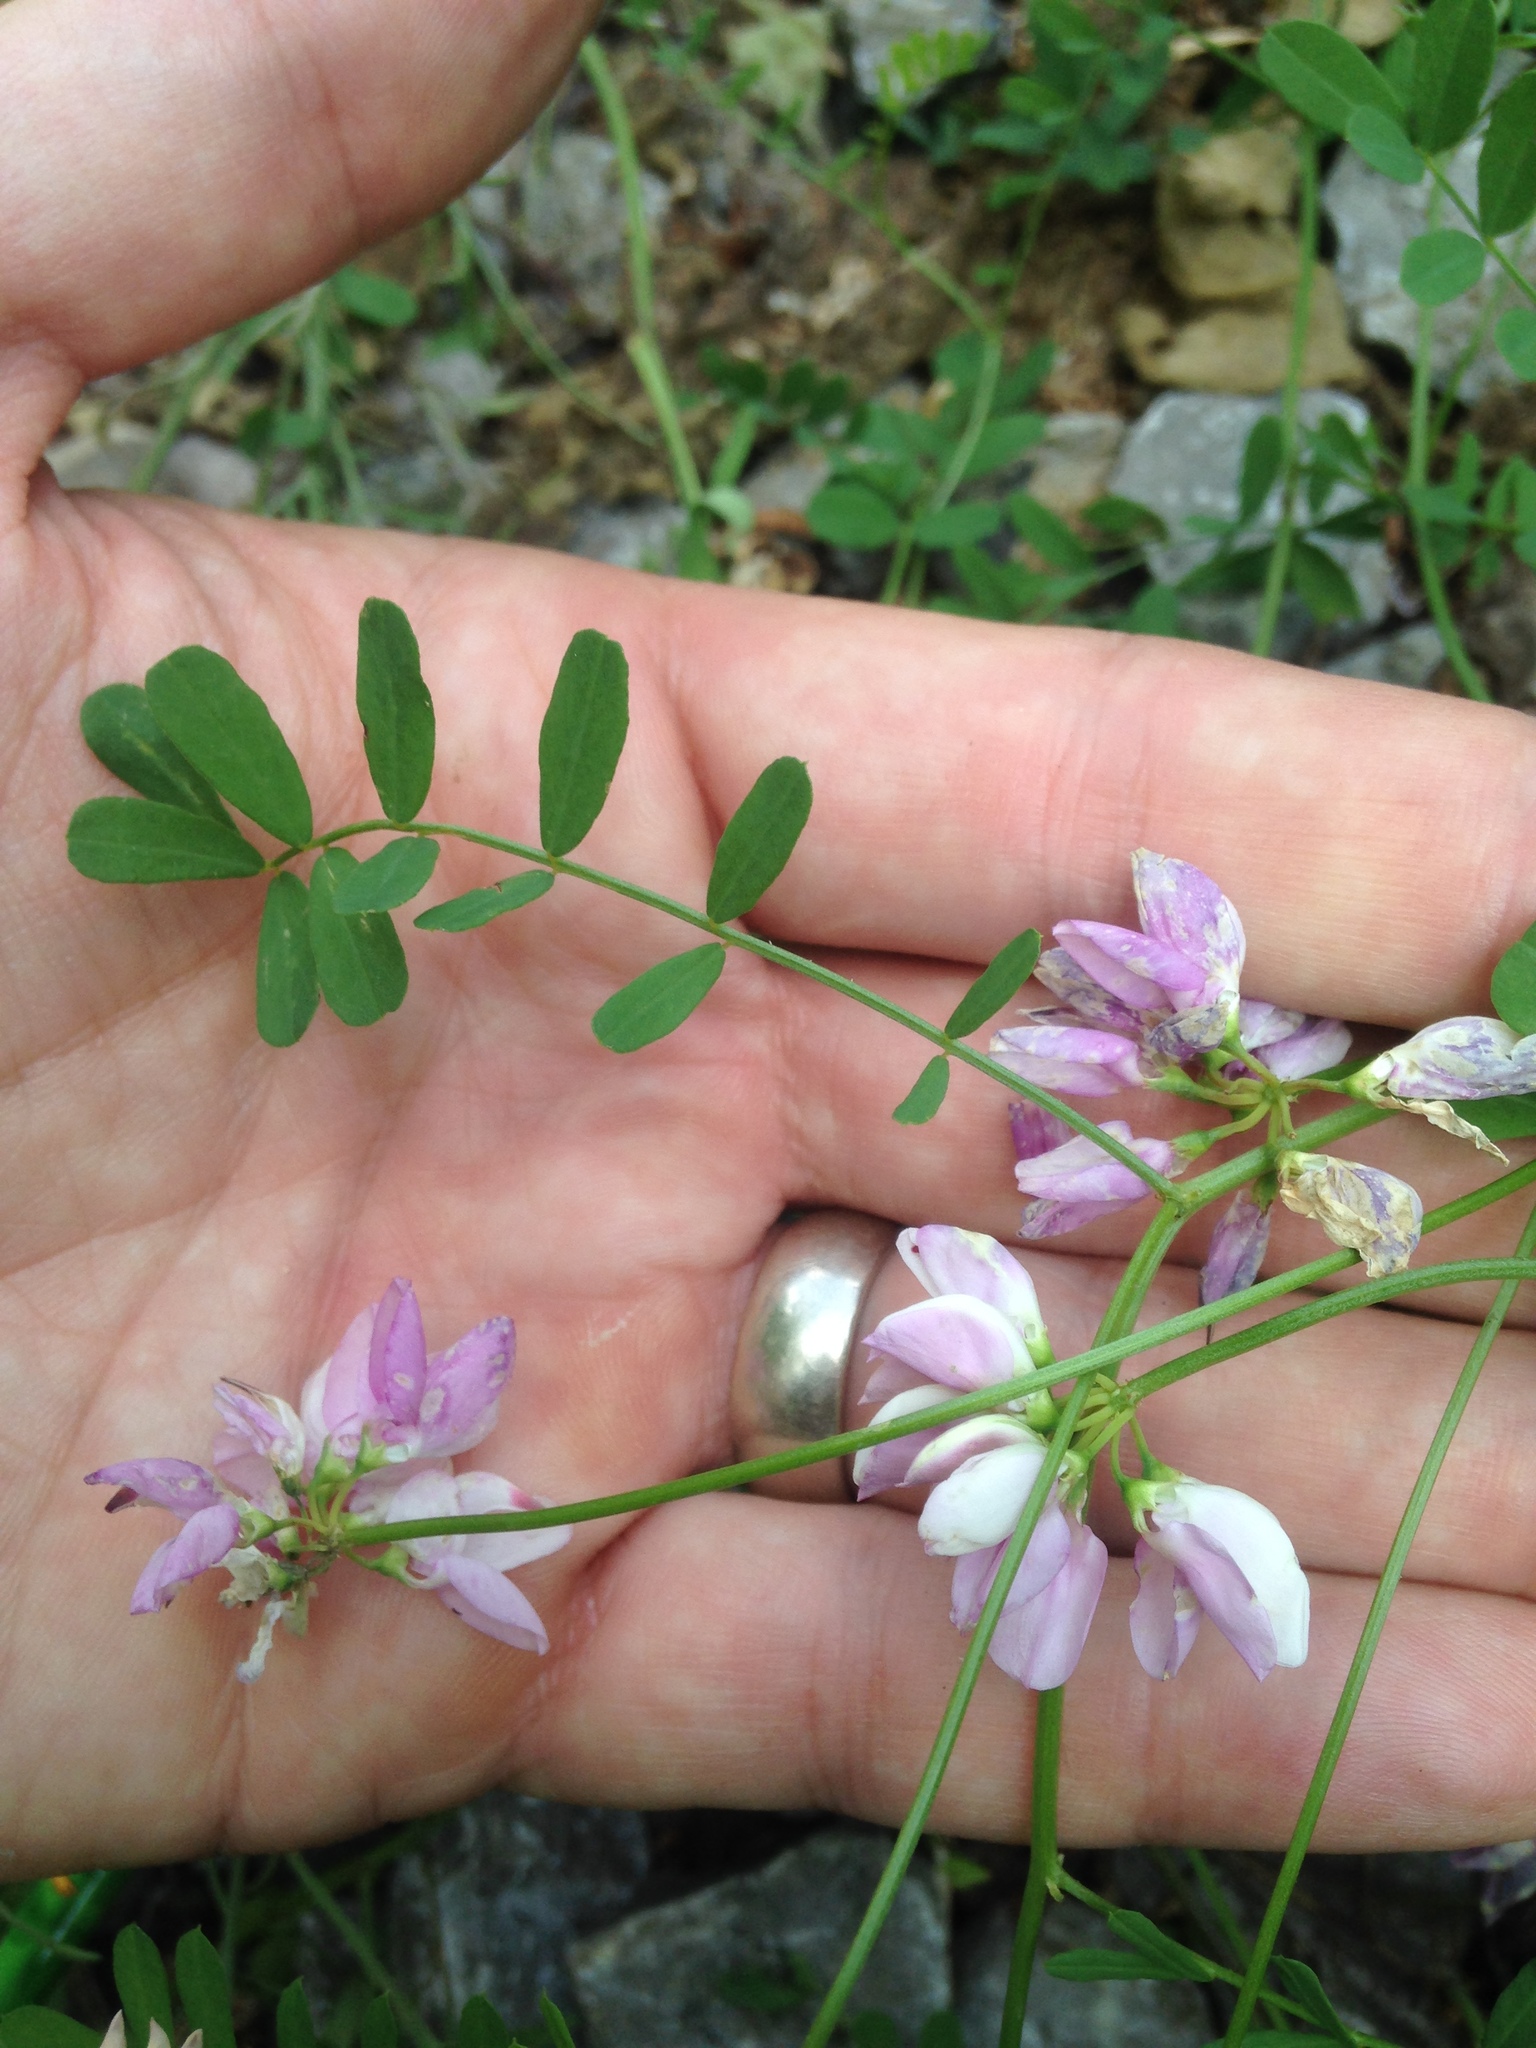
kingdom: Plantae
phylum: Tracheophyta
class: Magnoliopsida
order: Fabales
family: Fabaceae
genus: Coronilla
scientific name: Coronilla varia
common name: Crownvetch
